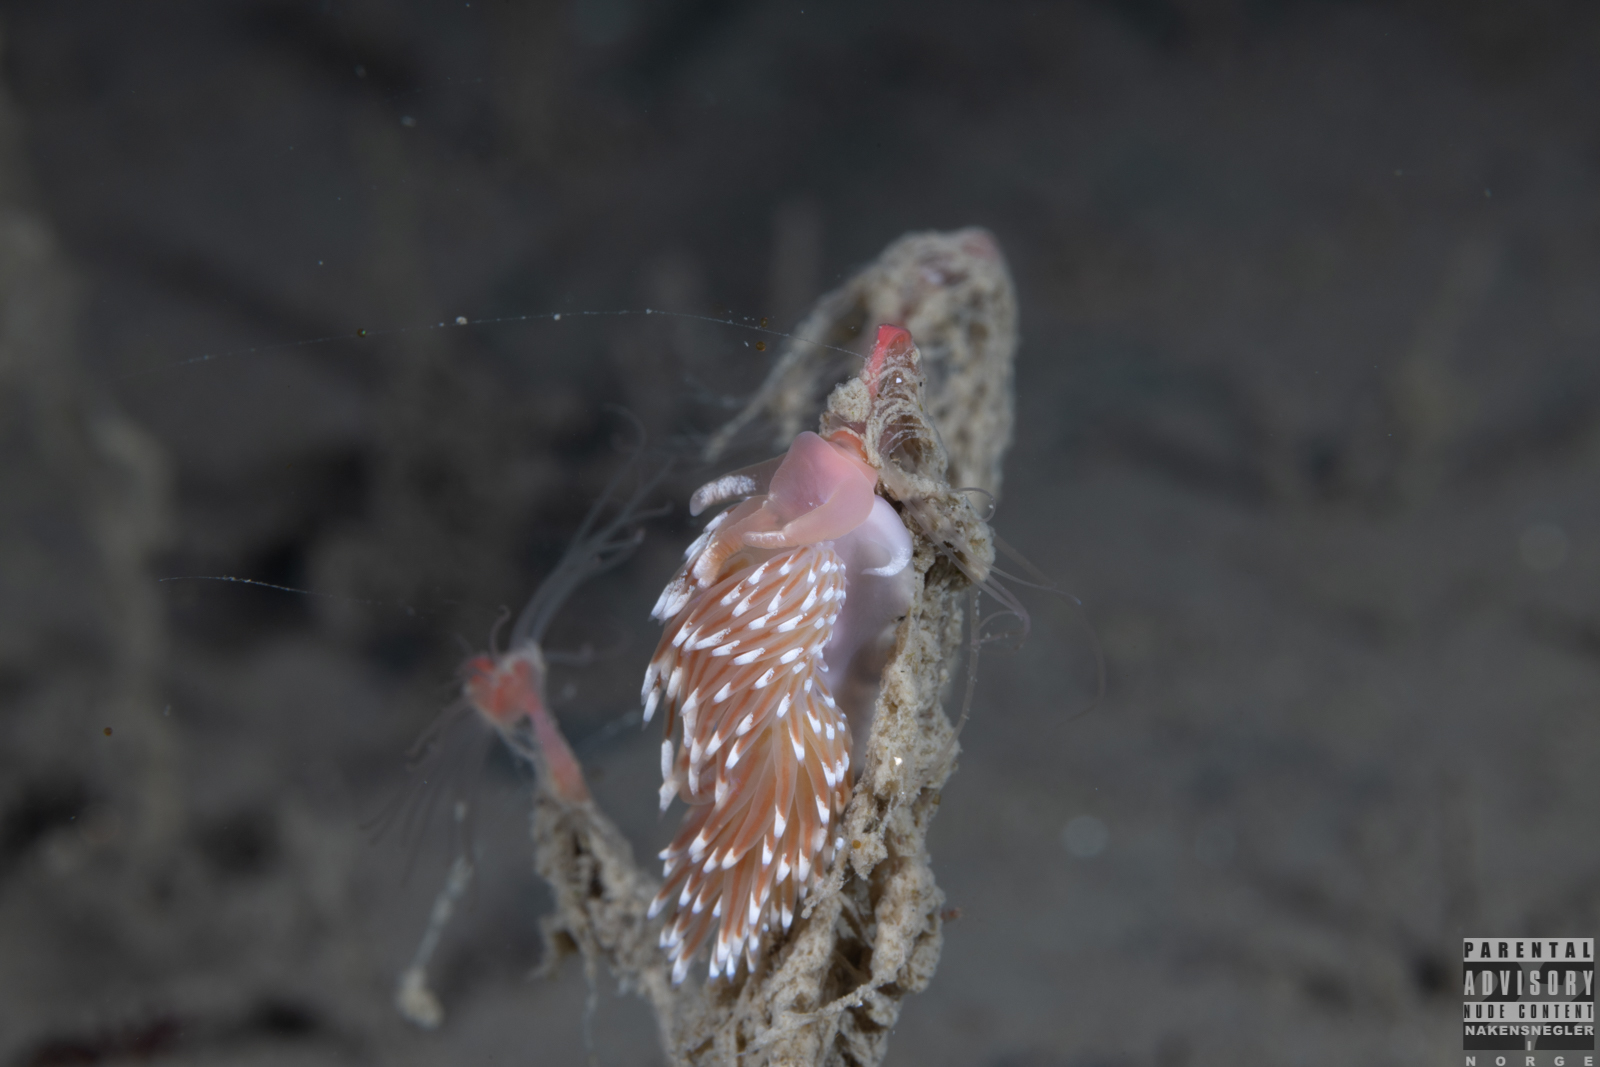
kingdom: Animalia
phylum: Mollusca
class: Gastropoda
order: Nudibranchia
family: Facelinidae
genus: Facelina
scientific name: Facelina bostoniensis
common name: Boston facelina
